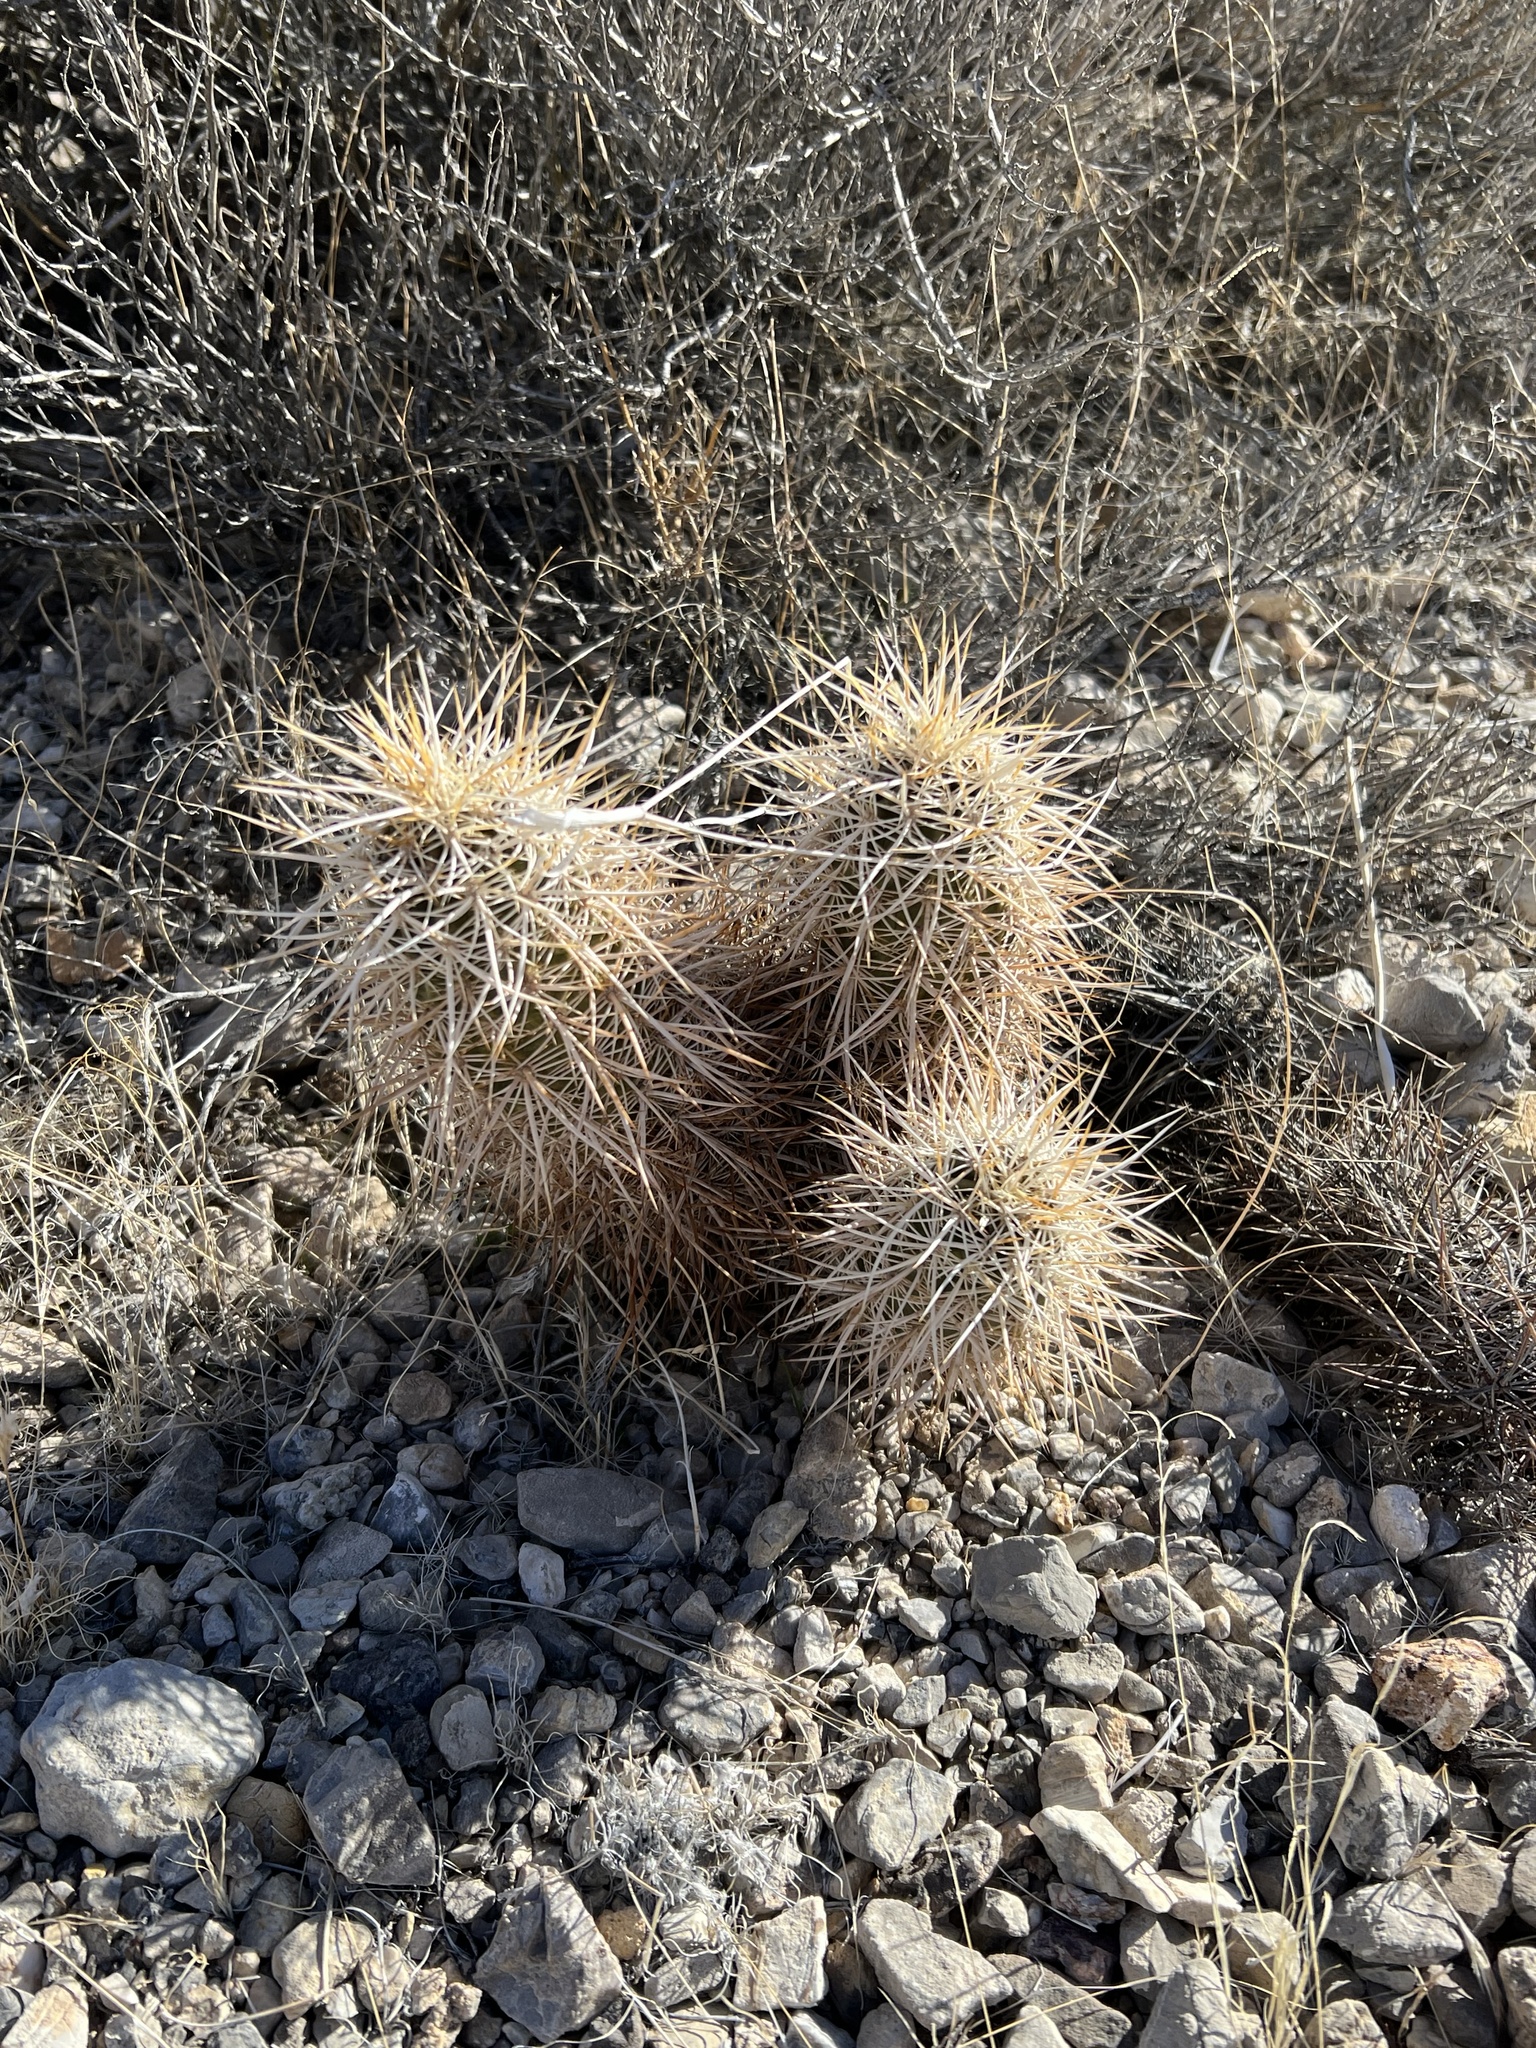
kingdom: Plantae
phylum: Tracheophyta
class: Magnoliopsida
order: Caryophyllales
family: Cactaceae
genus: Echinocereus
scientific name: Echinocereus engelmannii
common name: Engelmann's hedgehog cactus
